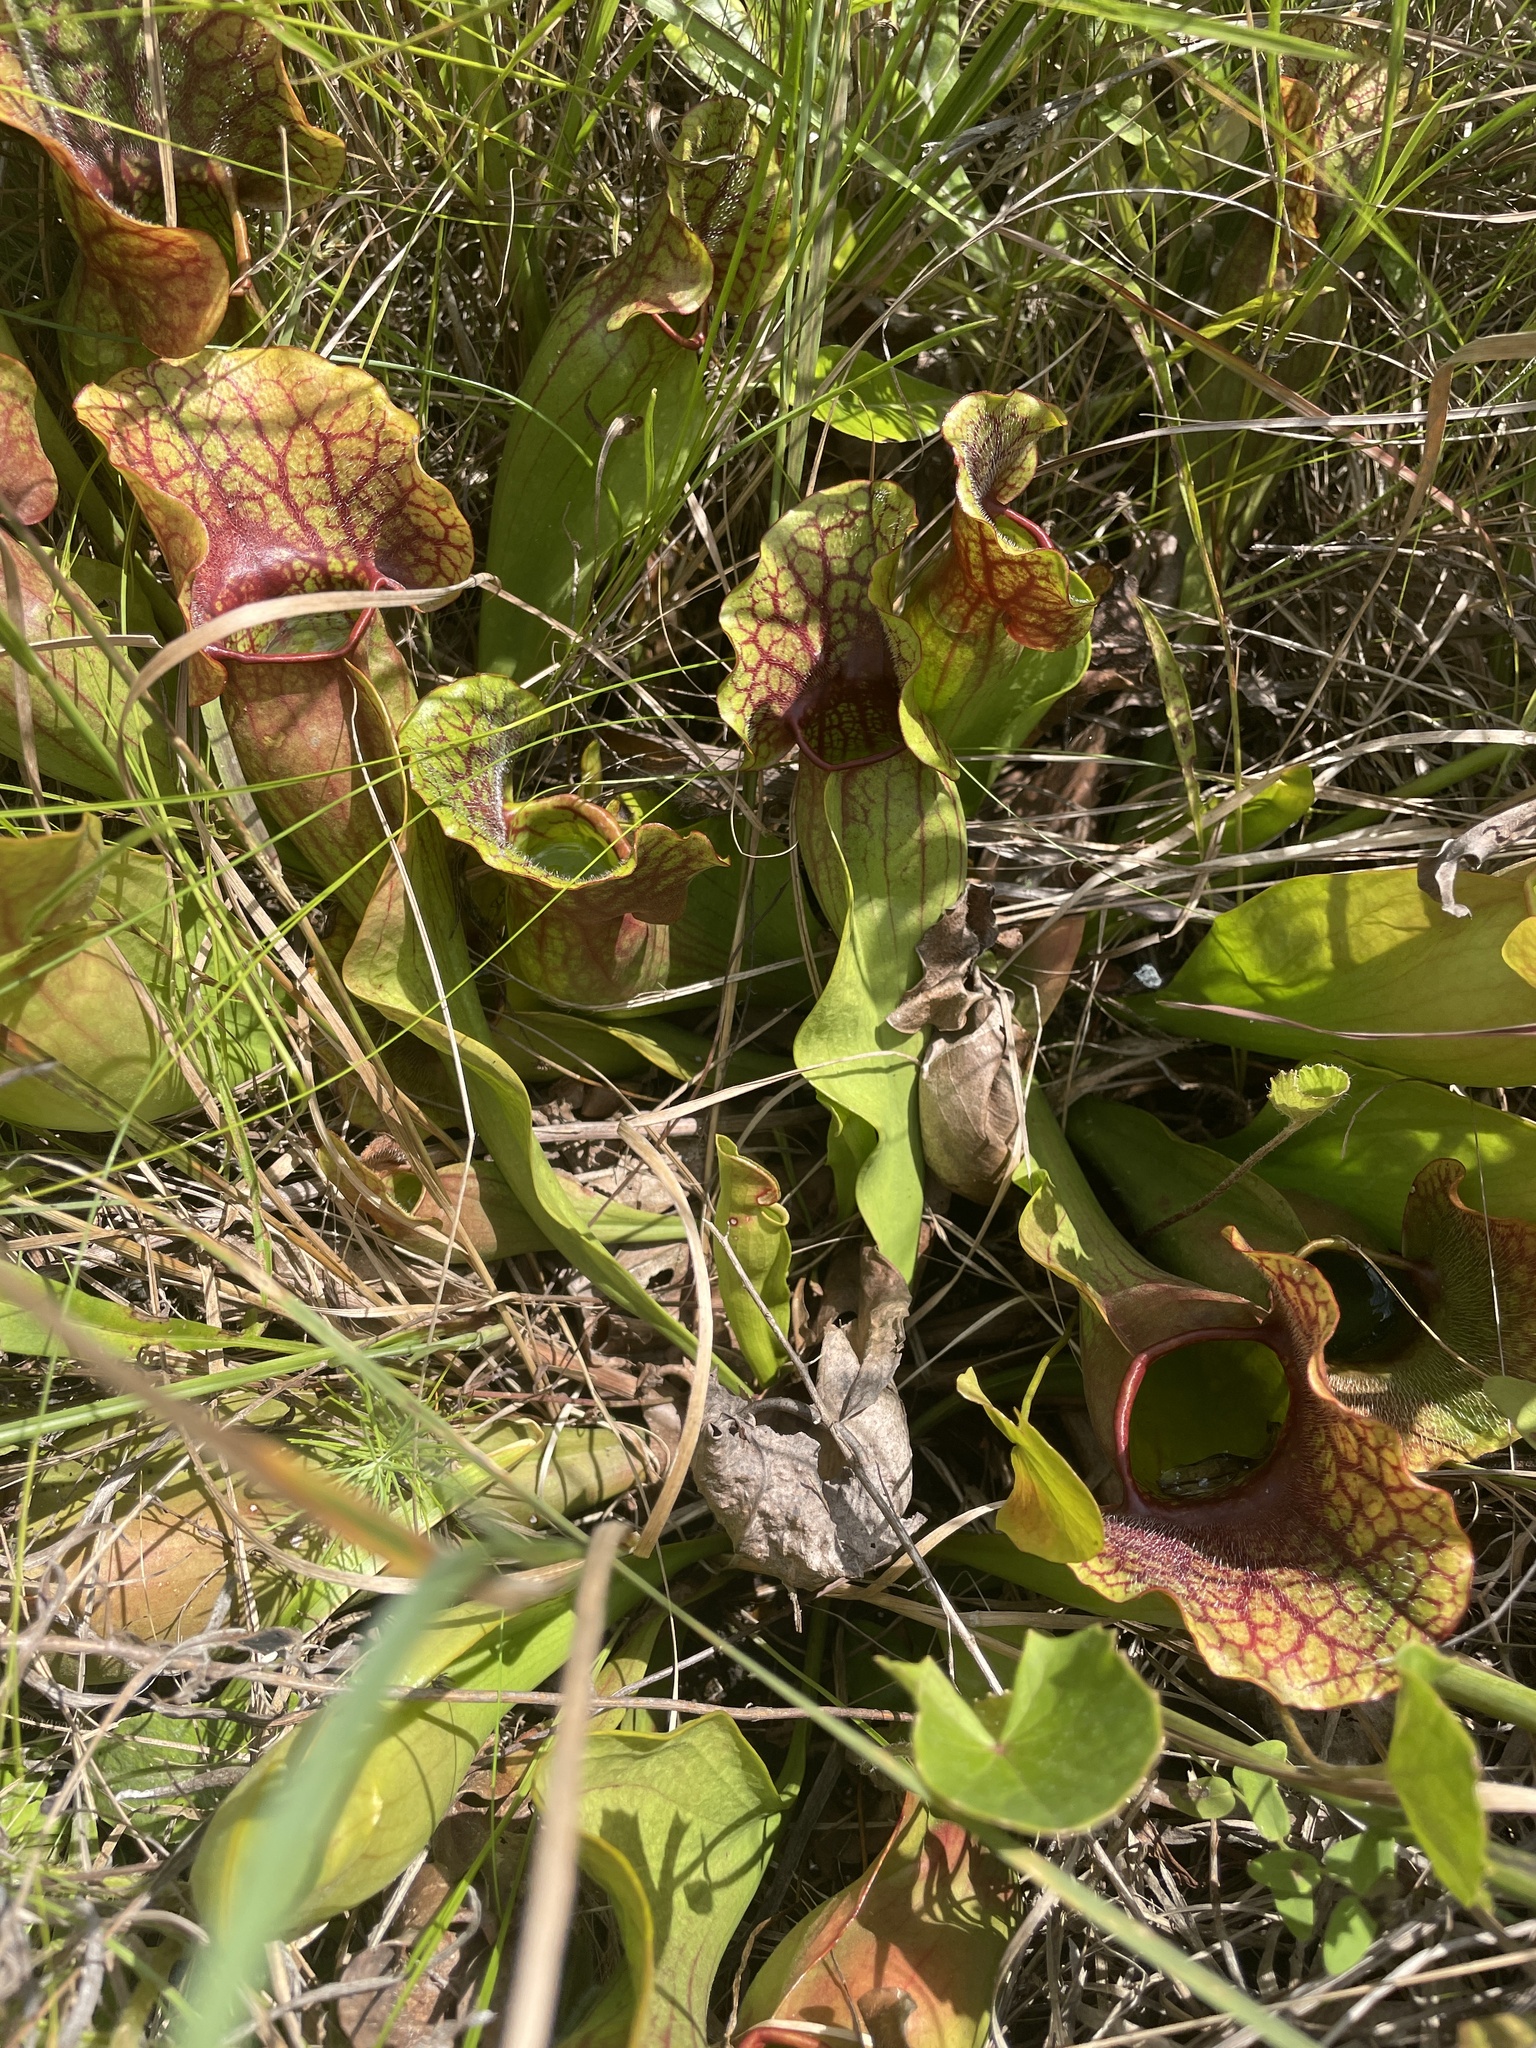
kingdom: Plantae
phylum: Tracheophyta
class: Magnoliopsida
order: Ericales
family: Sarraceniaceae
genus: Sarracenia
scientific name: Sarracenia purpurea
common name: Pitcherplant
